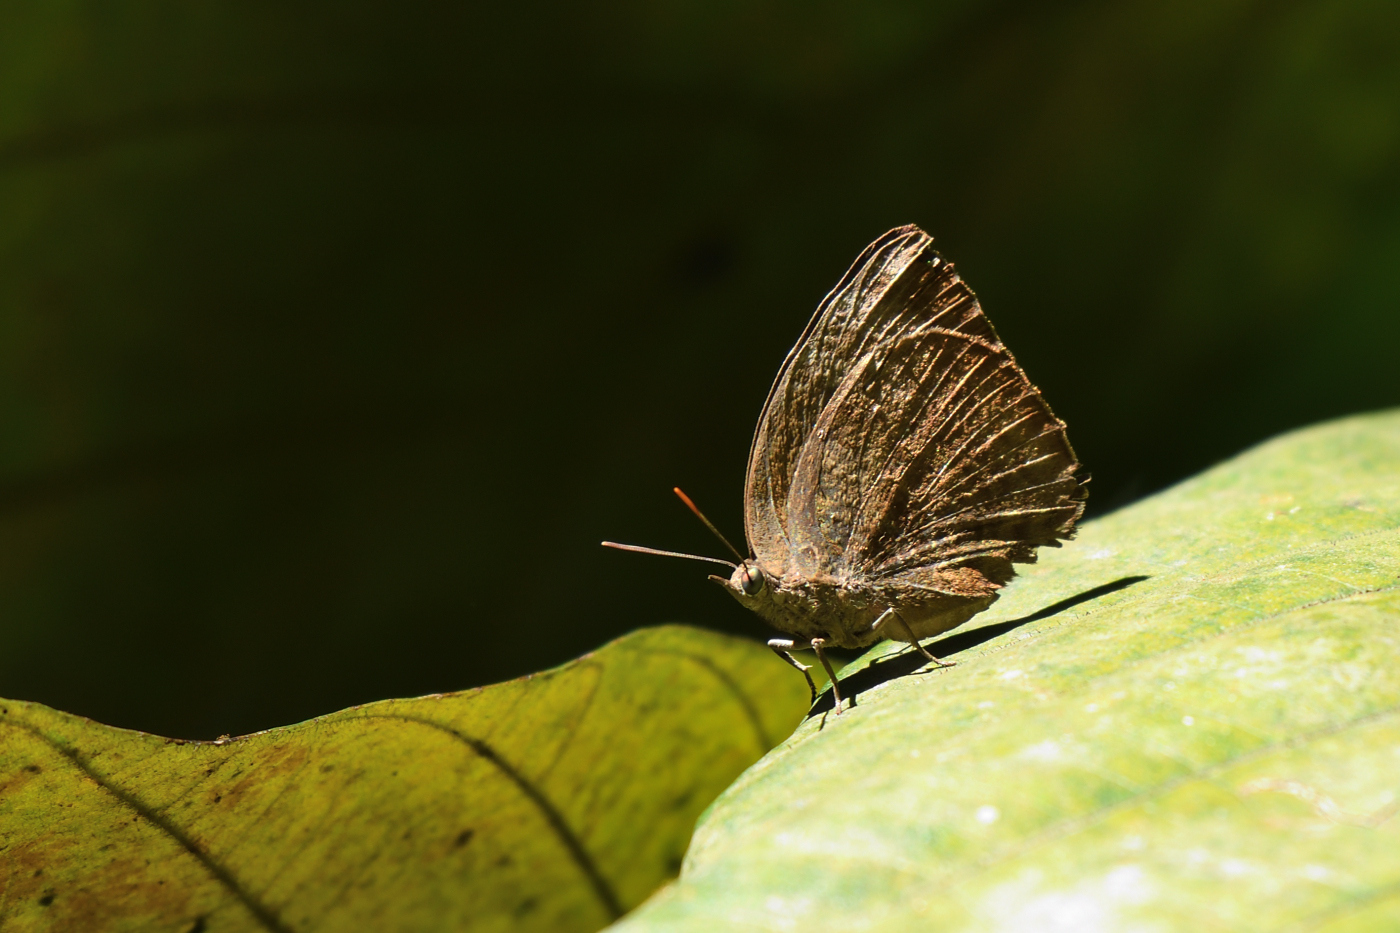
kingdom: Animalia
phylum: Arthropoda
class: Insecta
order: Lepidoptera
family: Lycaenidae
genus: Arhopala
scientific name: Arhopala centaurus
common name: Dull oak-blue
